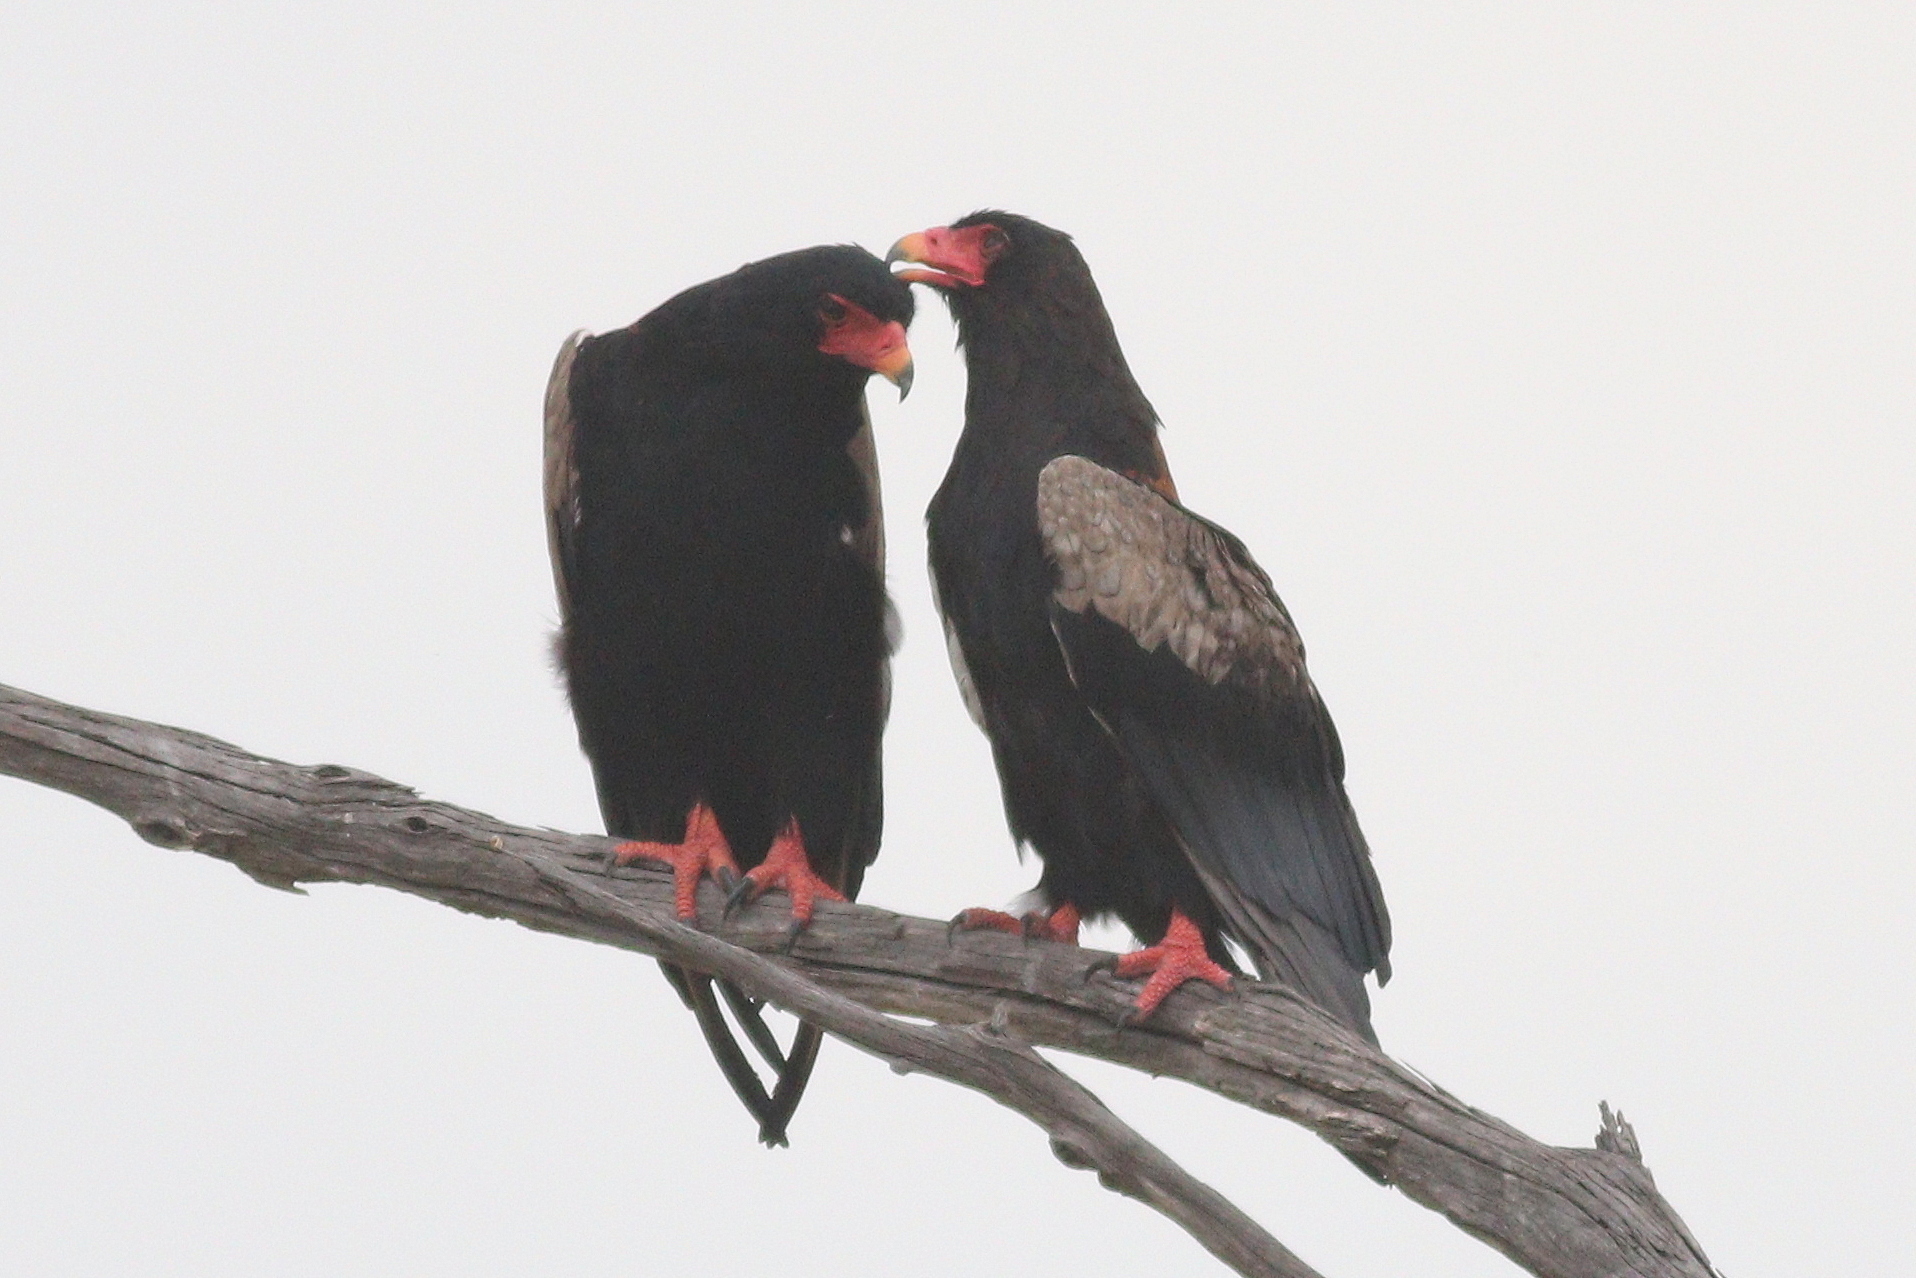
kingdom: Animalia
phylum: Chordata
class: Aves
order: Accipitriformes
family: Accipitridae
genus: Terathopius
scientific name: Terathopius ecaudatus
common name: Bateleur
